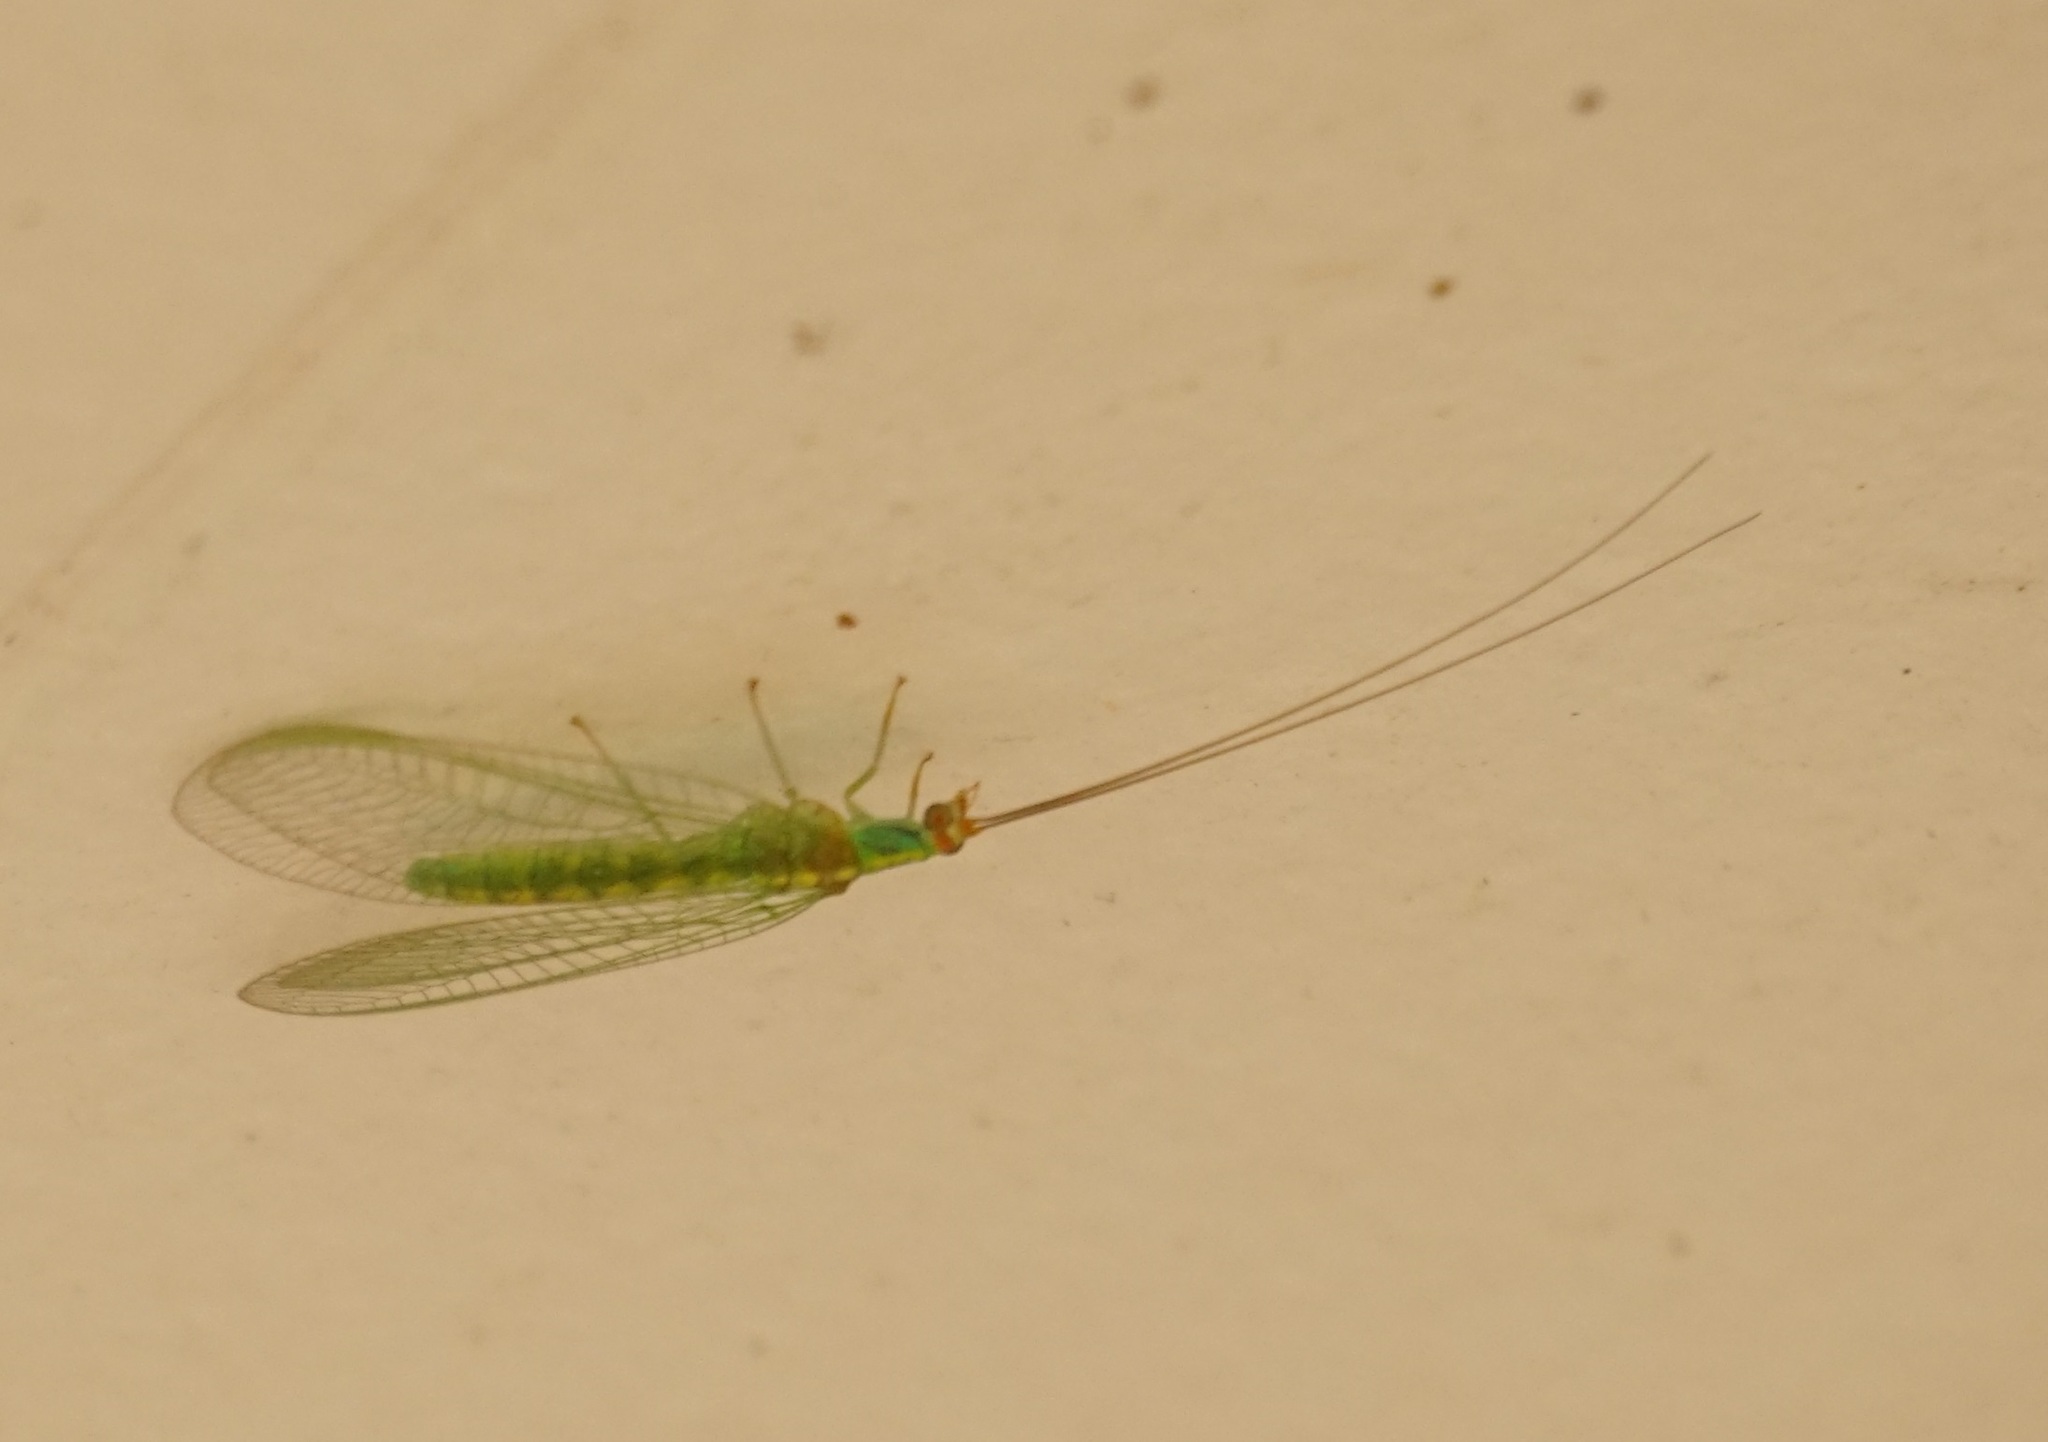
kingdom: Animalia
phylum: Arthropoda
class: Insecta
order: Neuroptera
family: Chrysopidae
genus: Plesiochrysa
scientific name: Plesiochrysa atalotis
